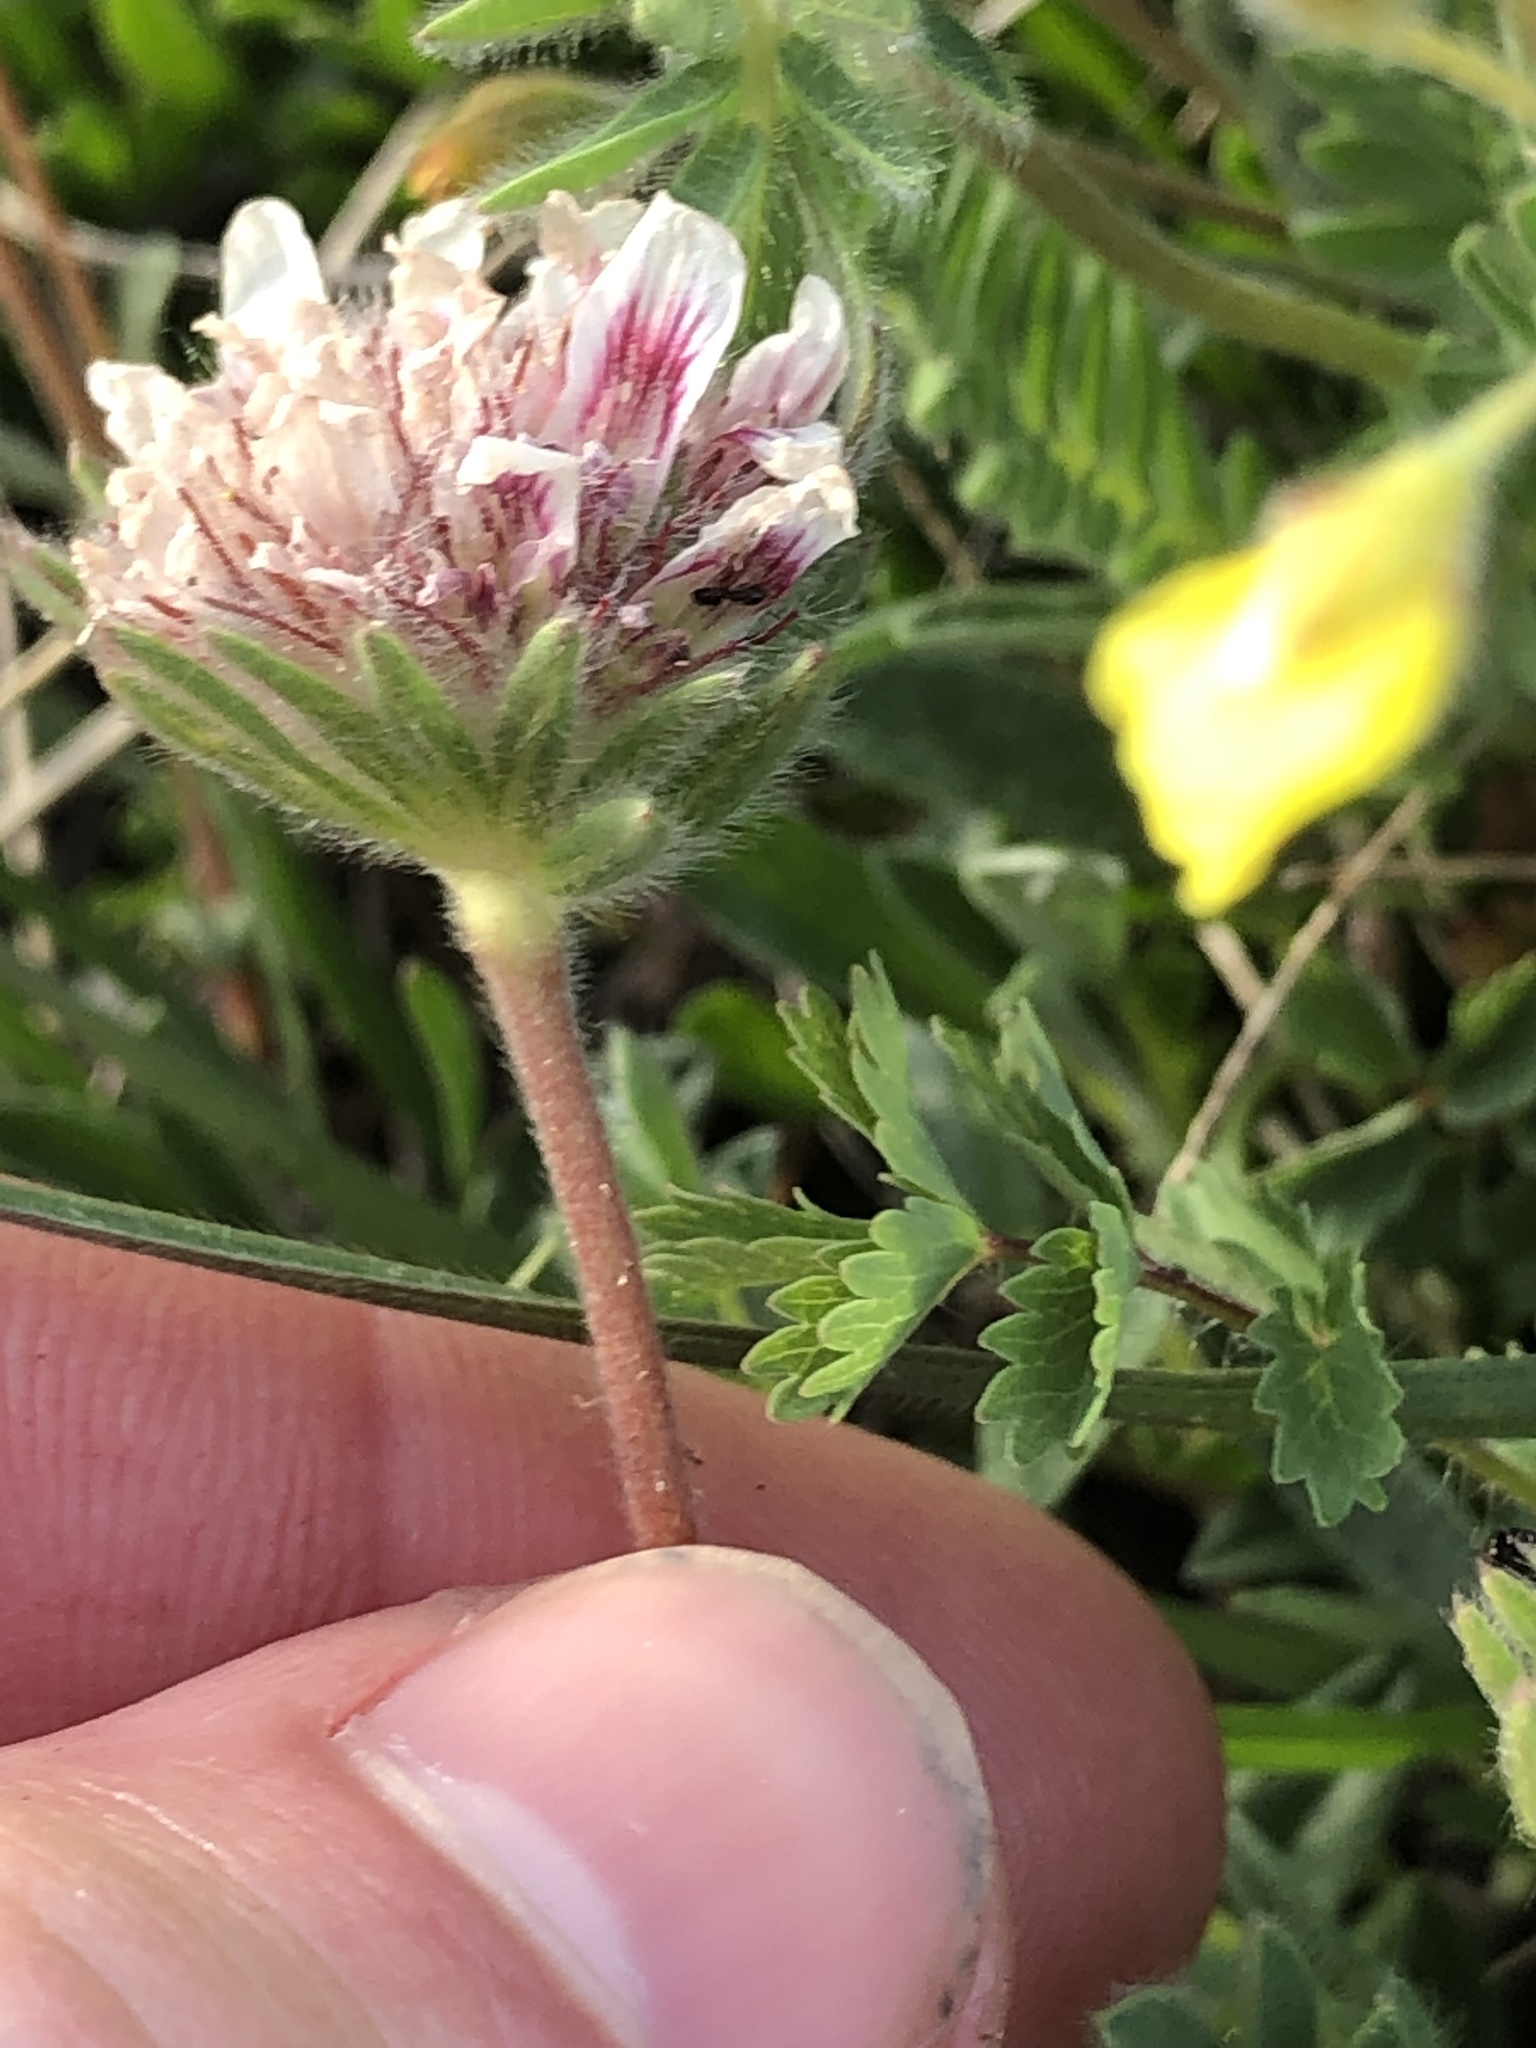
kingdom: Plantae
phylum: Tracheophyta
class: Magnoliopsida
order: Fabales
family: Fabaceae
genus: Anthyllis
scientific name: Anthyllis montana
